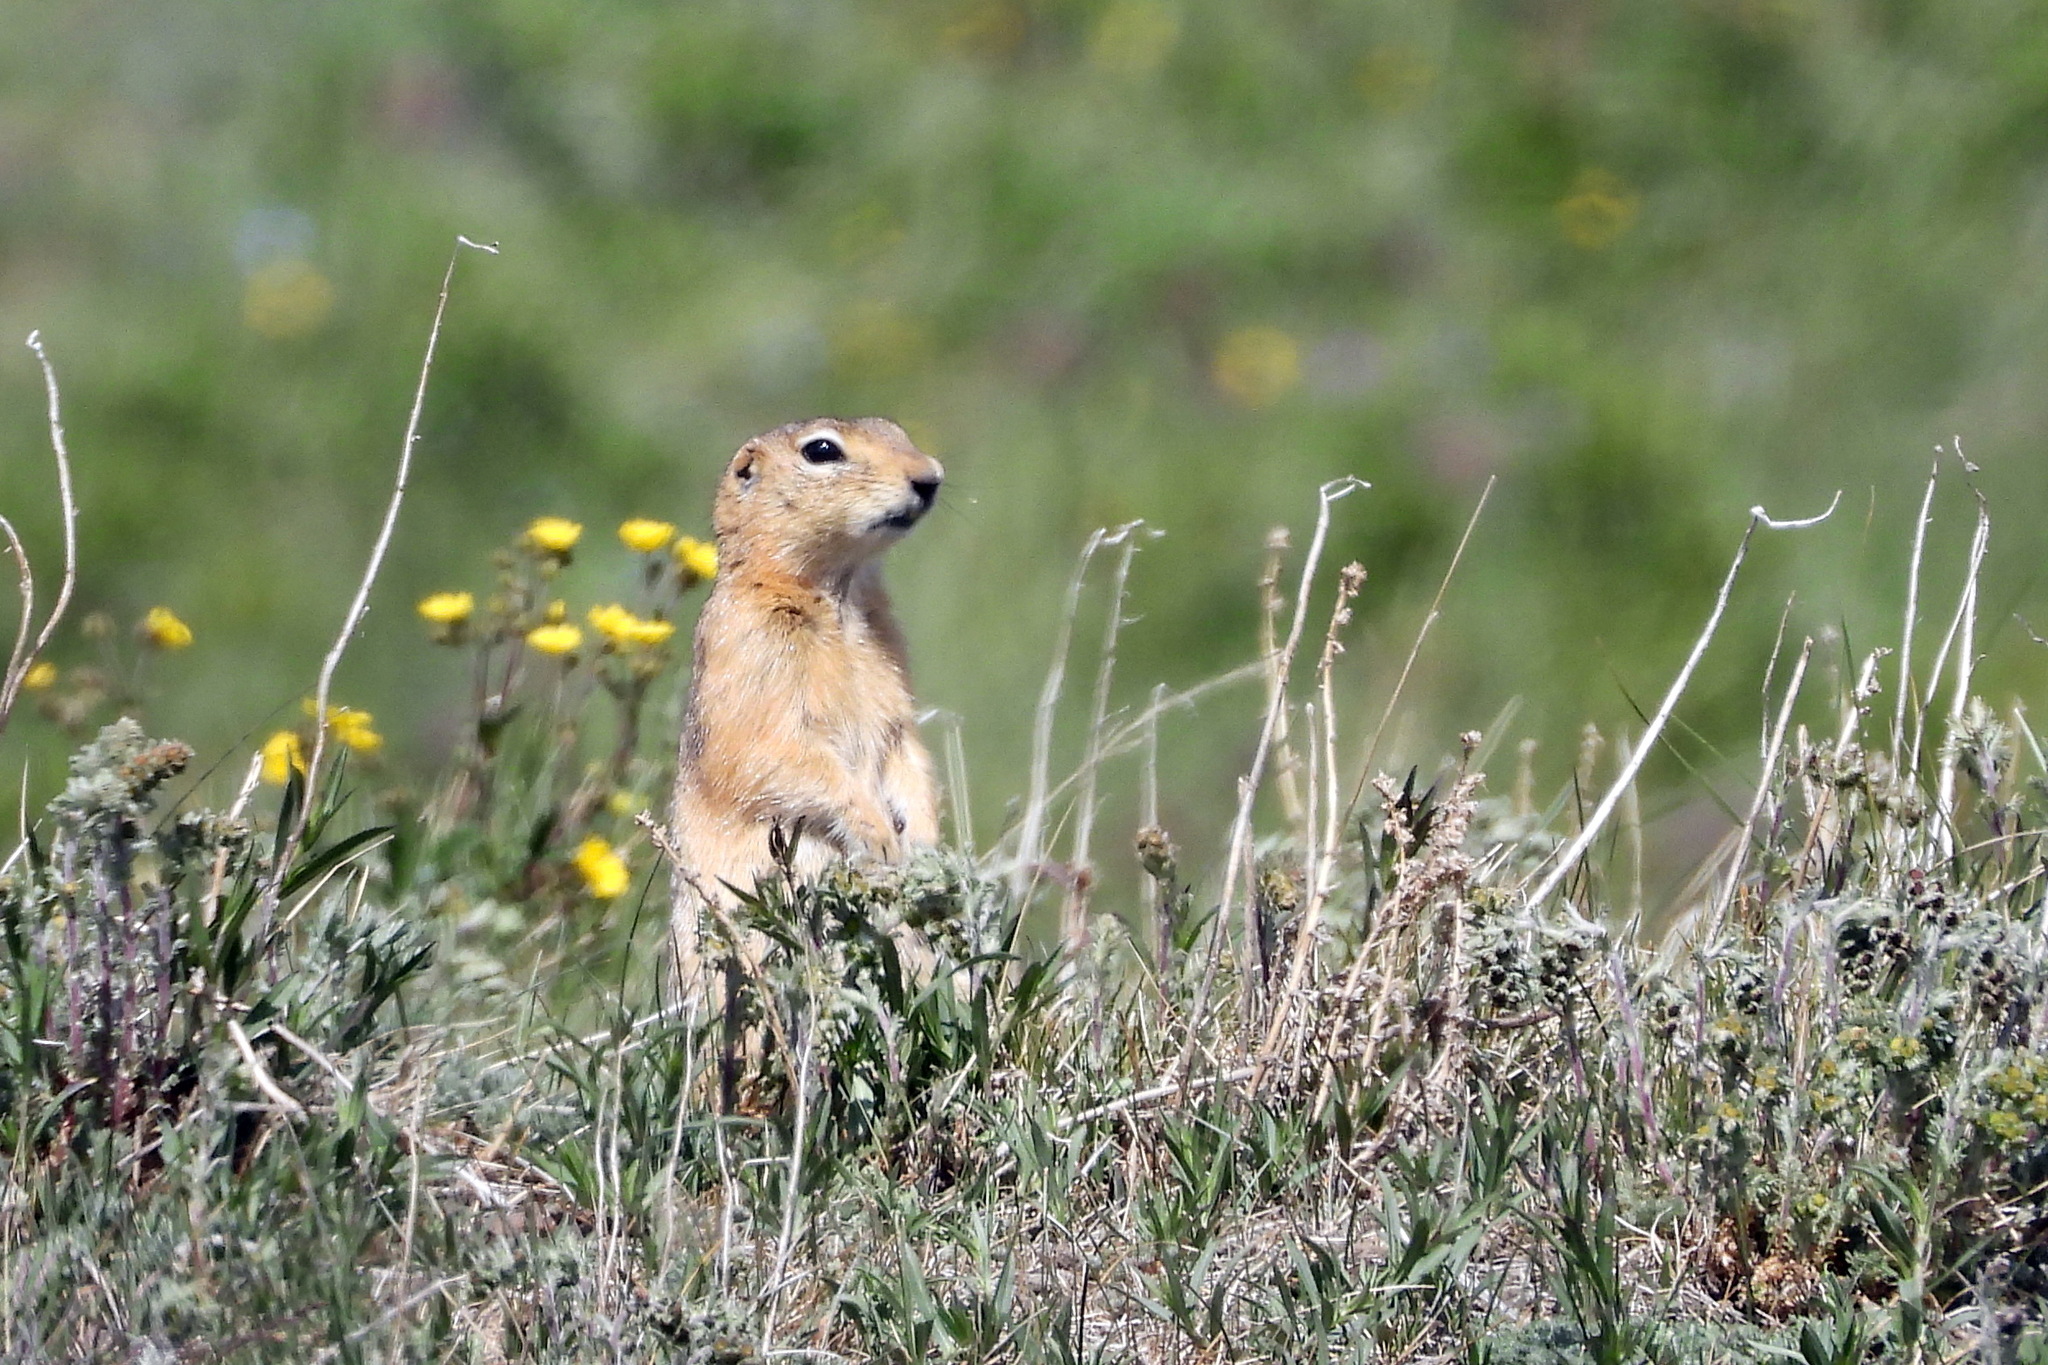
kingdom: Animalia
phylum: Chordata
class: Mammalia
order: Rodentia
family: Sciuridae
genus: Urocitellus
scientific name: Urocitellus undulatus
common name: Long-tailed ground squirrel
